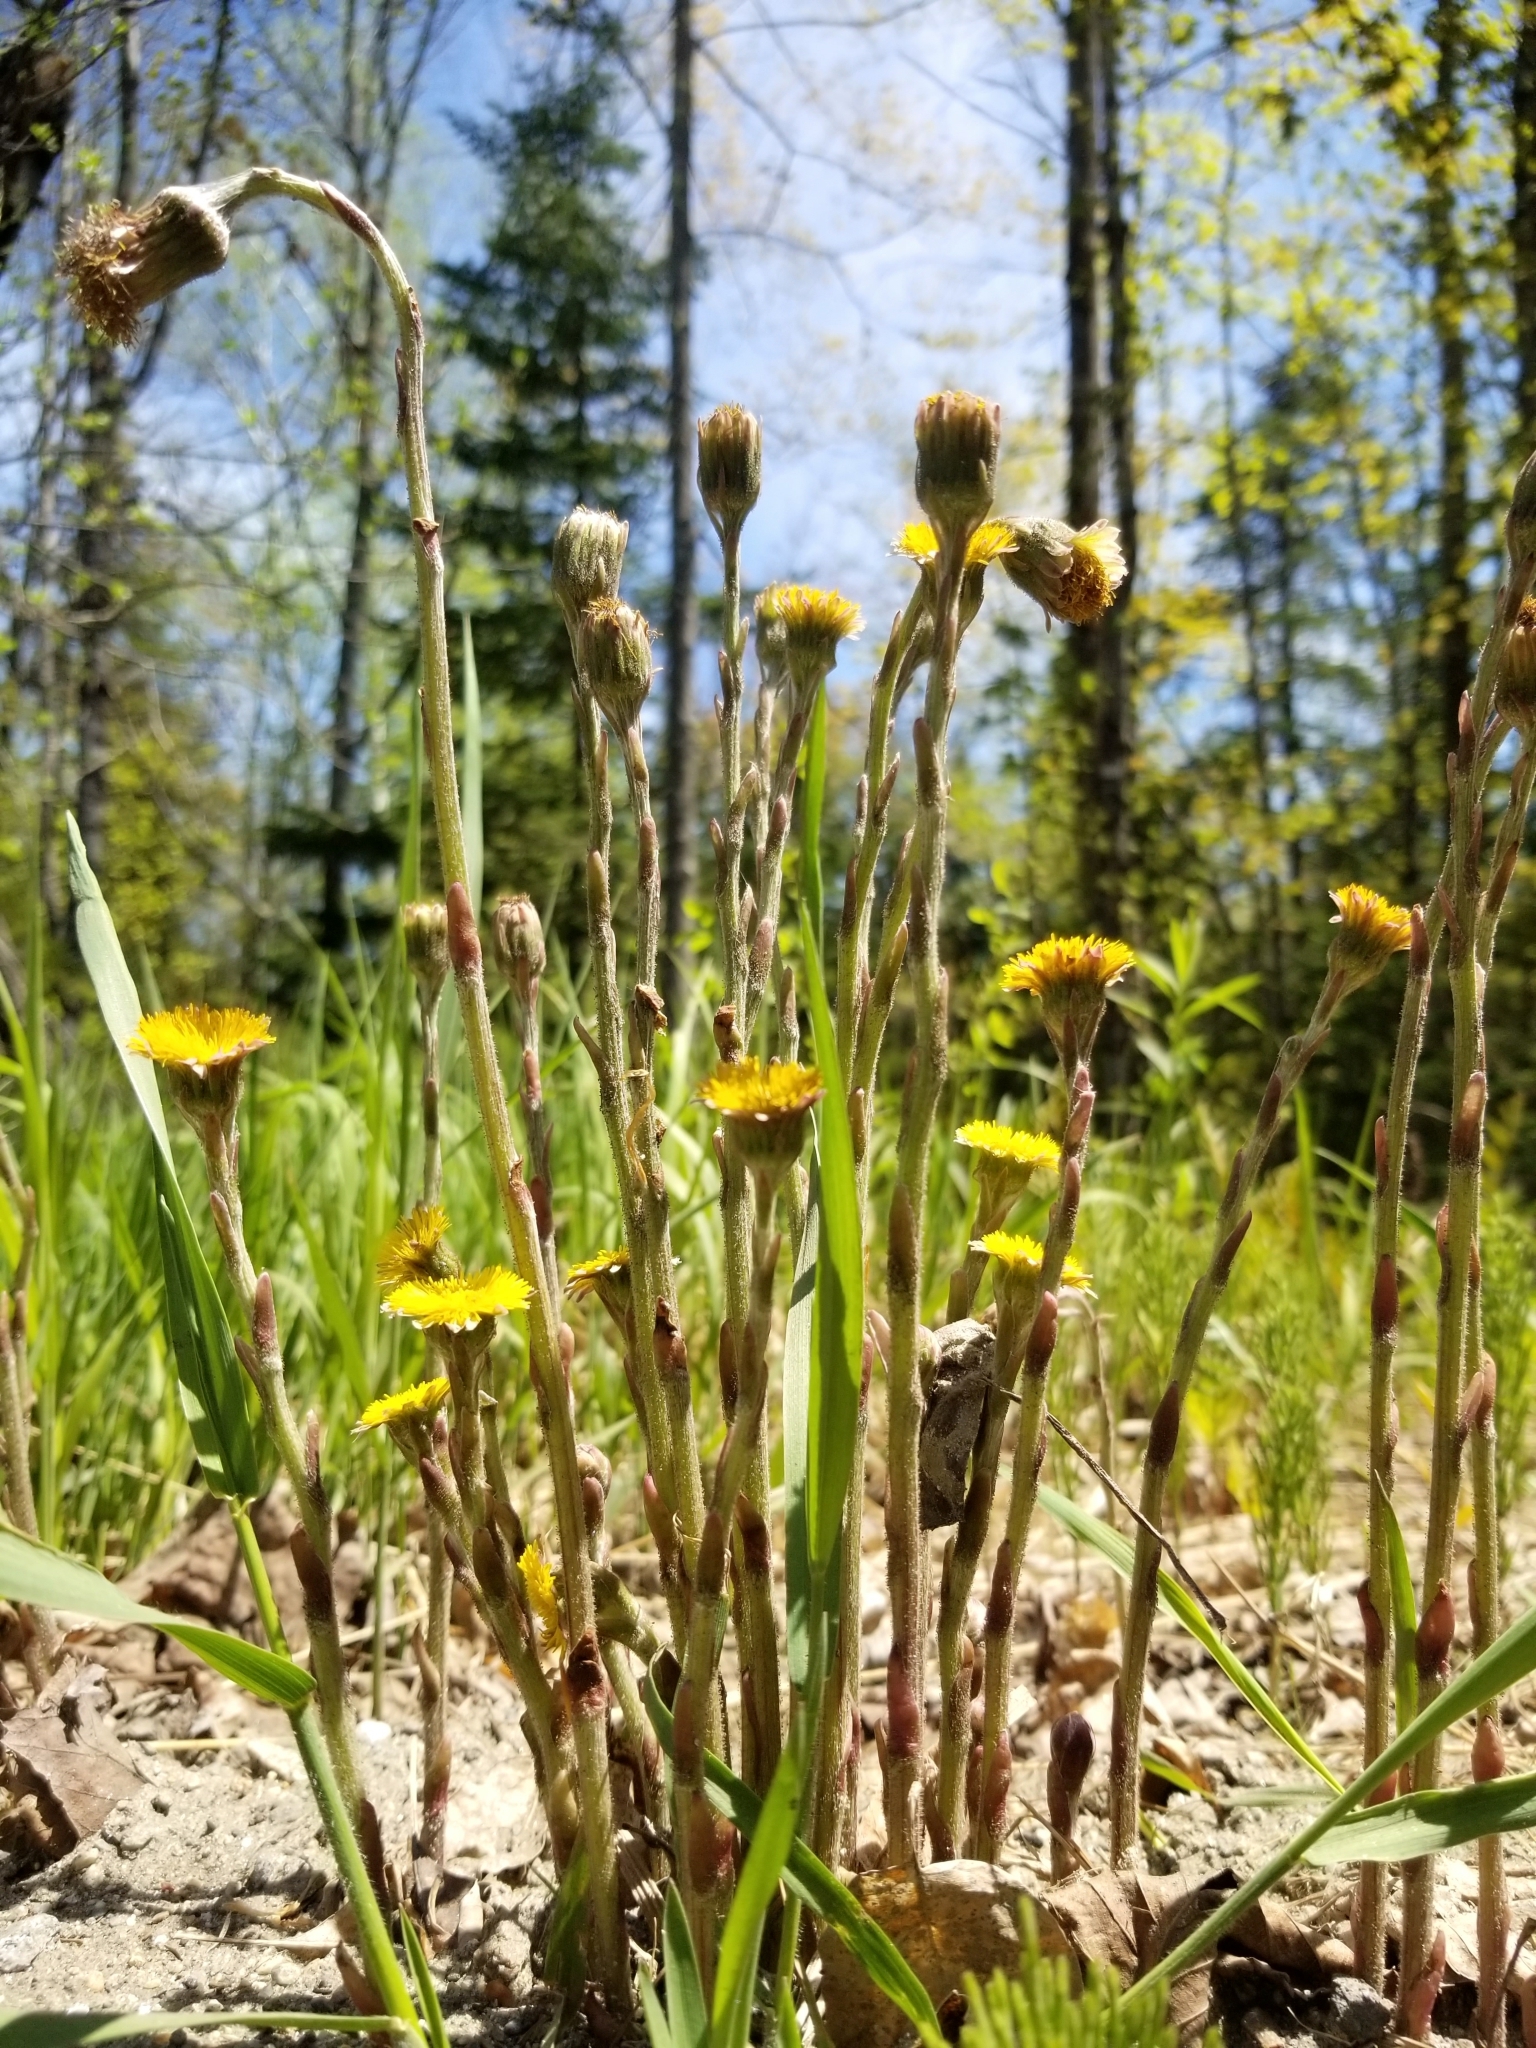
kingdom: Plantae
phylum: Tracheophyta
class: Magnoliopsida
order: Asterales
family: Asteraceae
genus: Tussilago
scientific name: Tussilago farfara
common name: Coltsfoot
